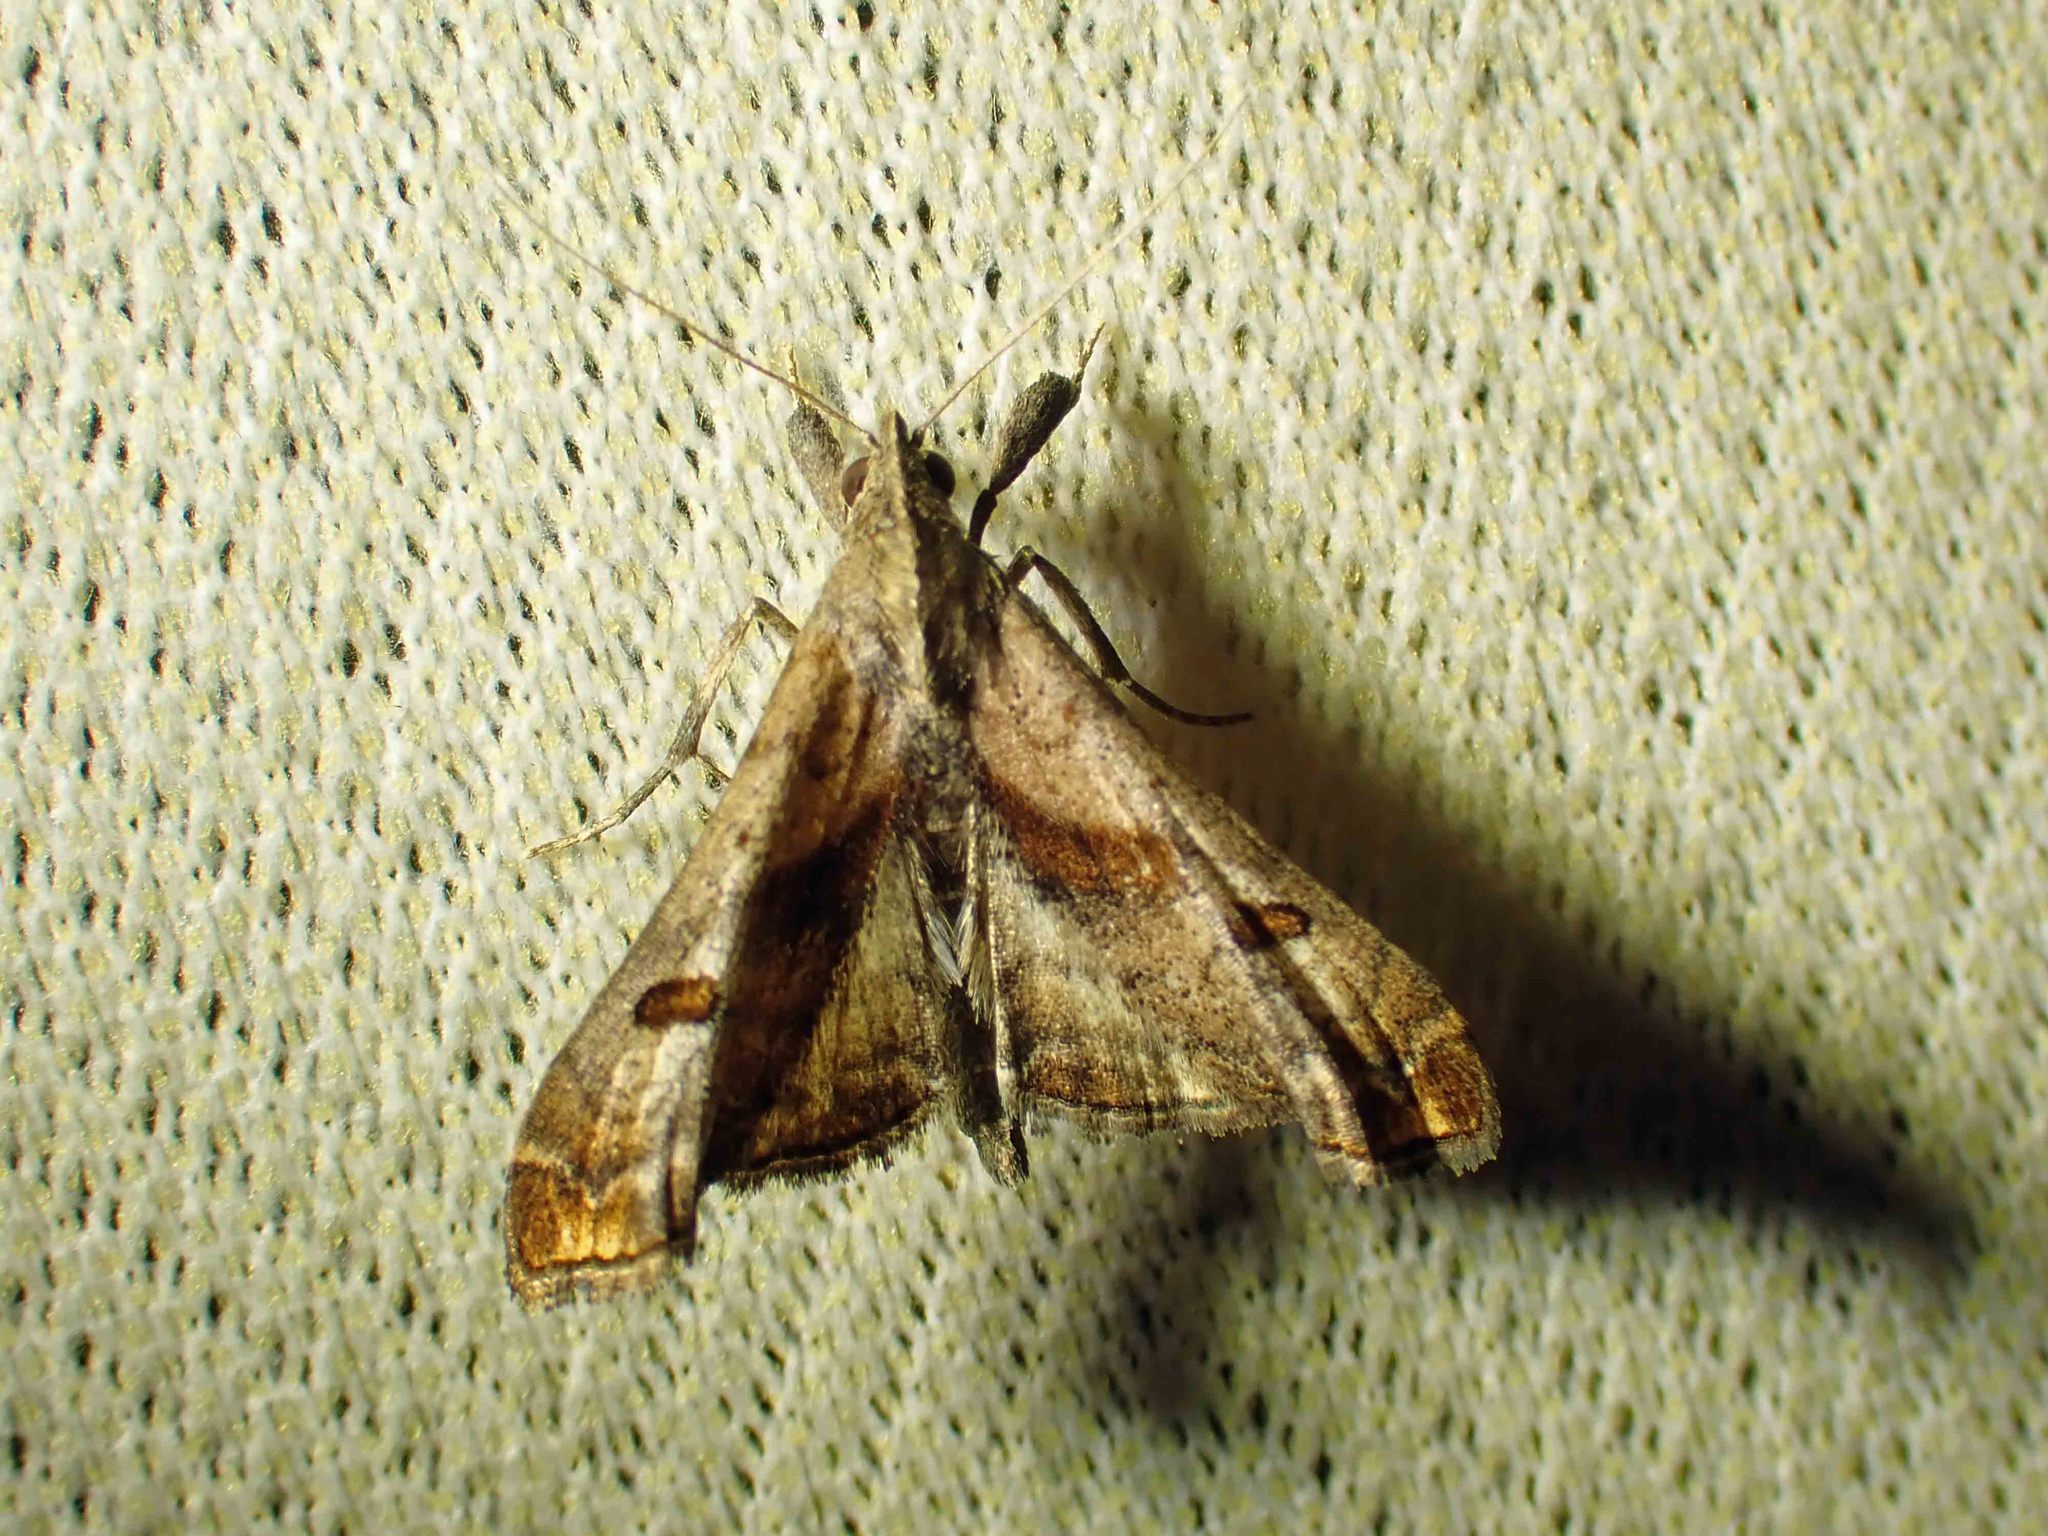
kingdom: Animalia
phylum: Arthropoda
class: Insecta
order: Lepidoptera
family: Erebidae
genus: Palthis
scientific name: Palthis angulalis
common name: Dark-spotted palthis moth
